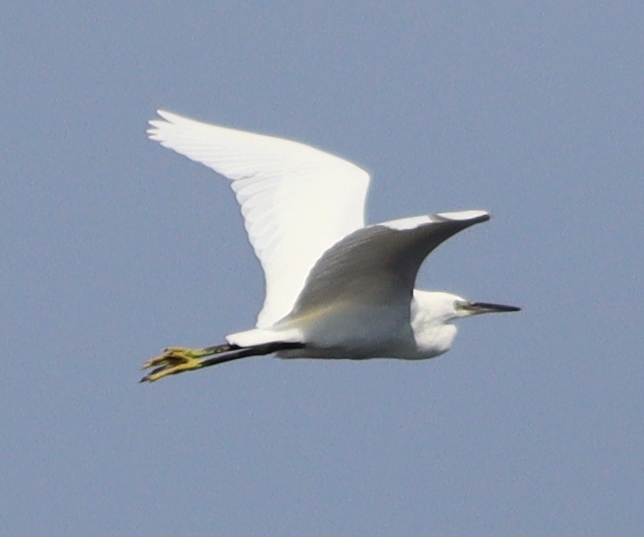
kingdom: Animalia
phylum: Chordata
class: Aves
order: Pelecaniformes
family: Ardeidae
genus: Egretta
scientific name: Egretta garzetta
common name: Little egret
